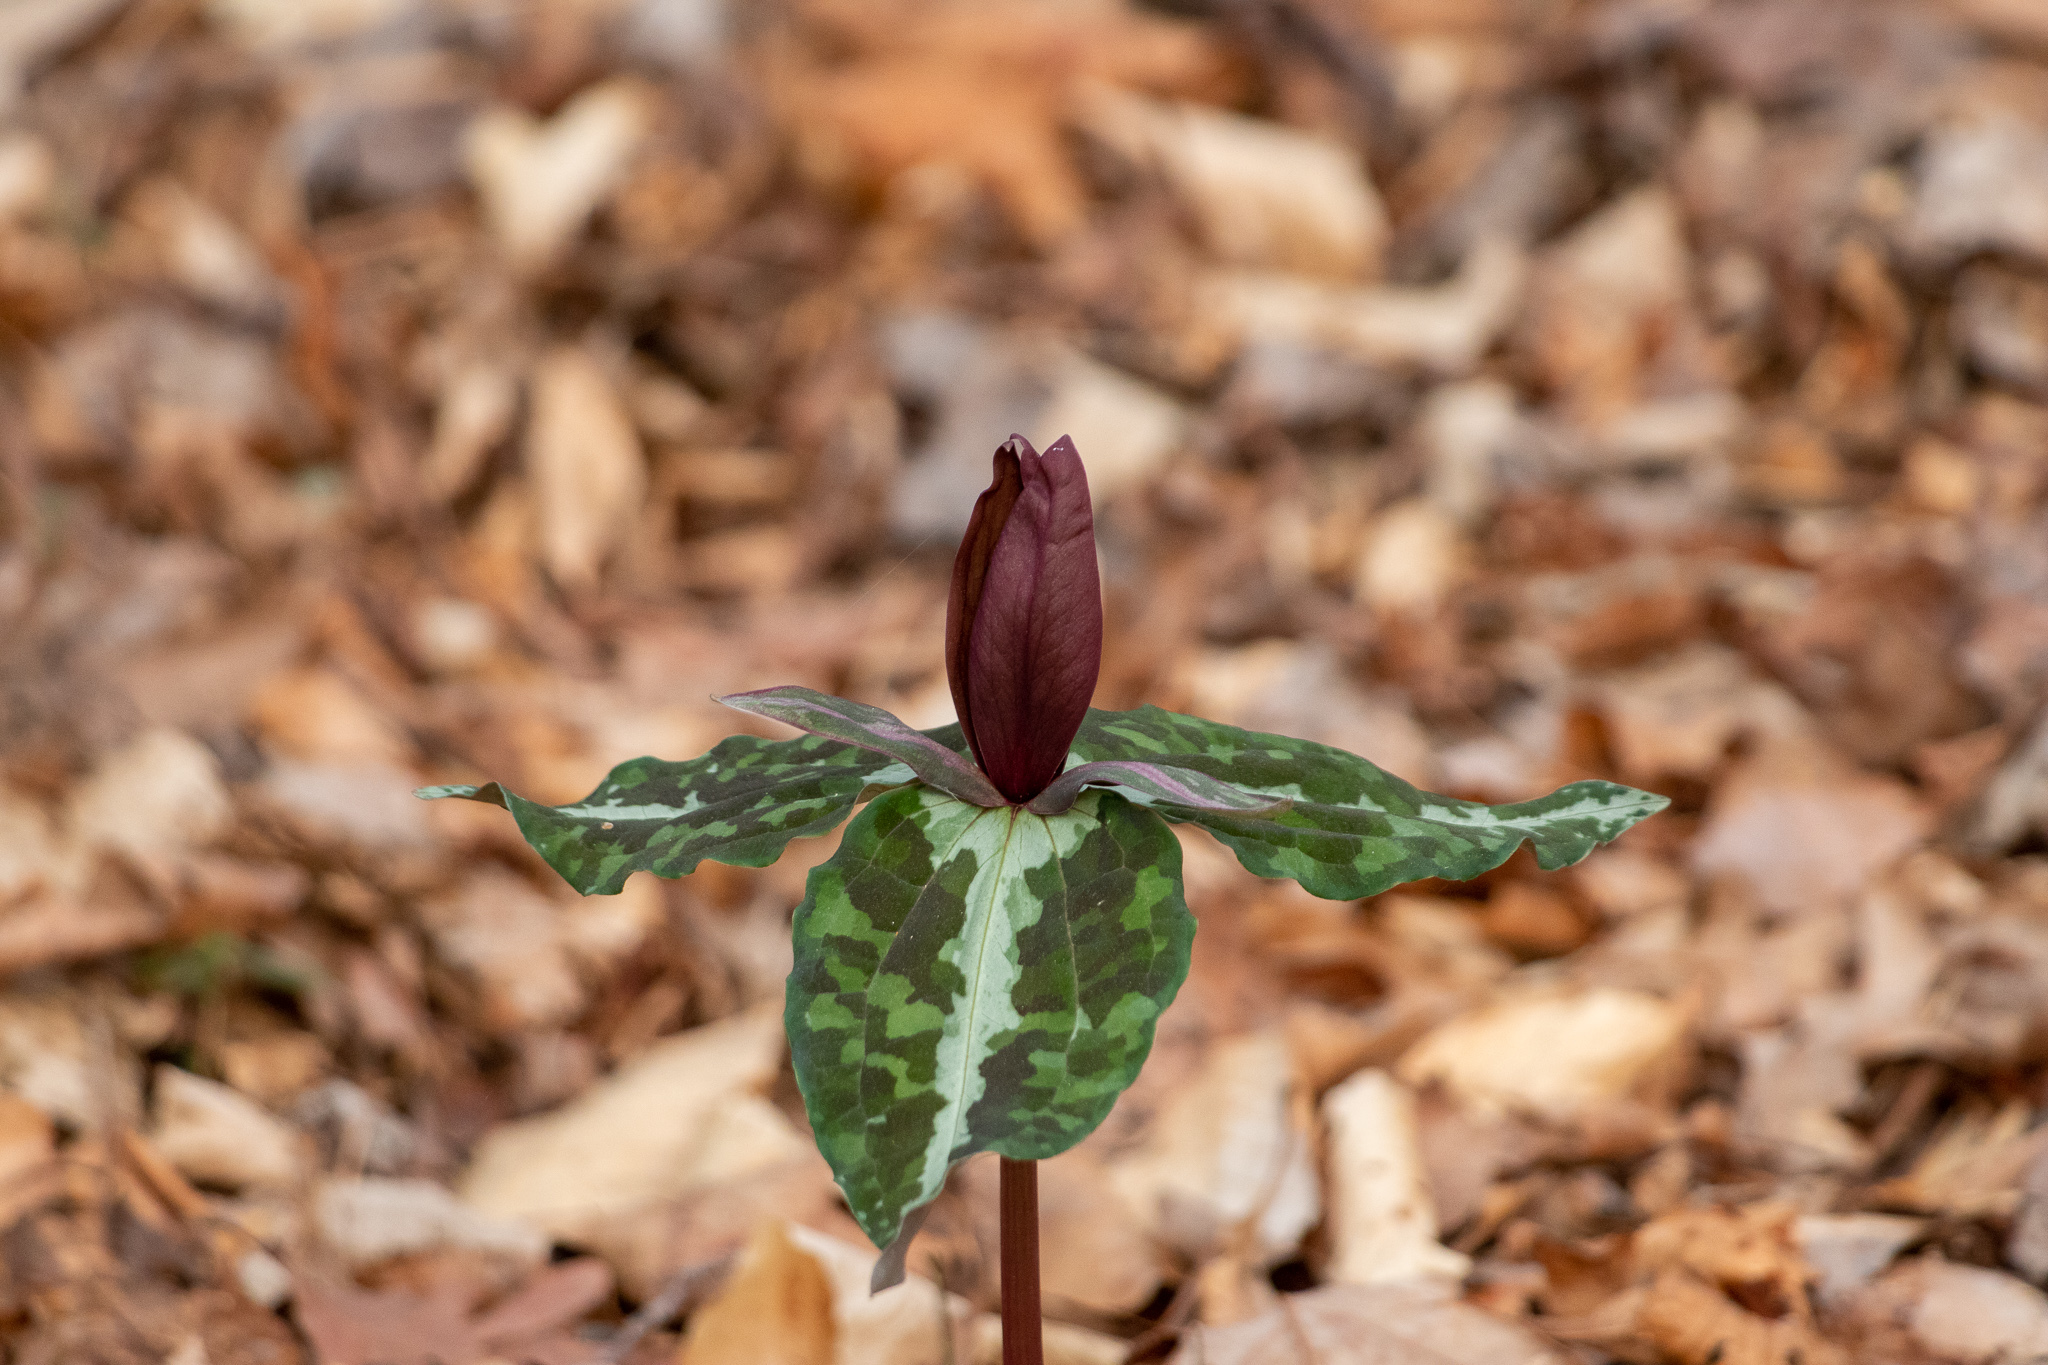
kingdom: Plantae
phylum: Tracheophyta
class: Liliopsida
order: Liliales
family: Melanthiaceae
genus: Trillium
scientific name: Trillium decipiens
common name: Chattahoochee river trillium
